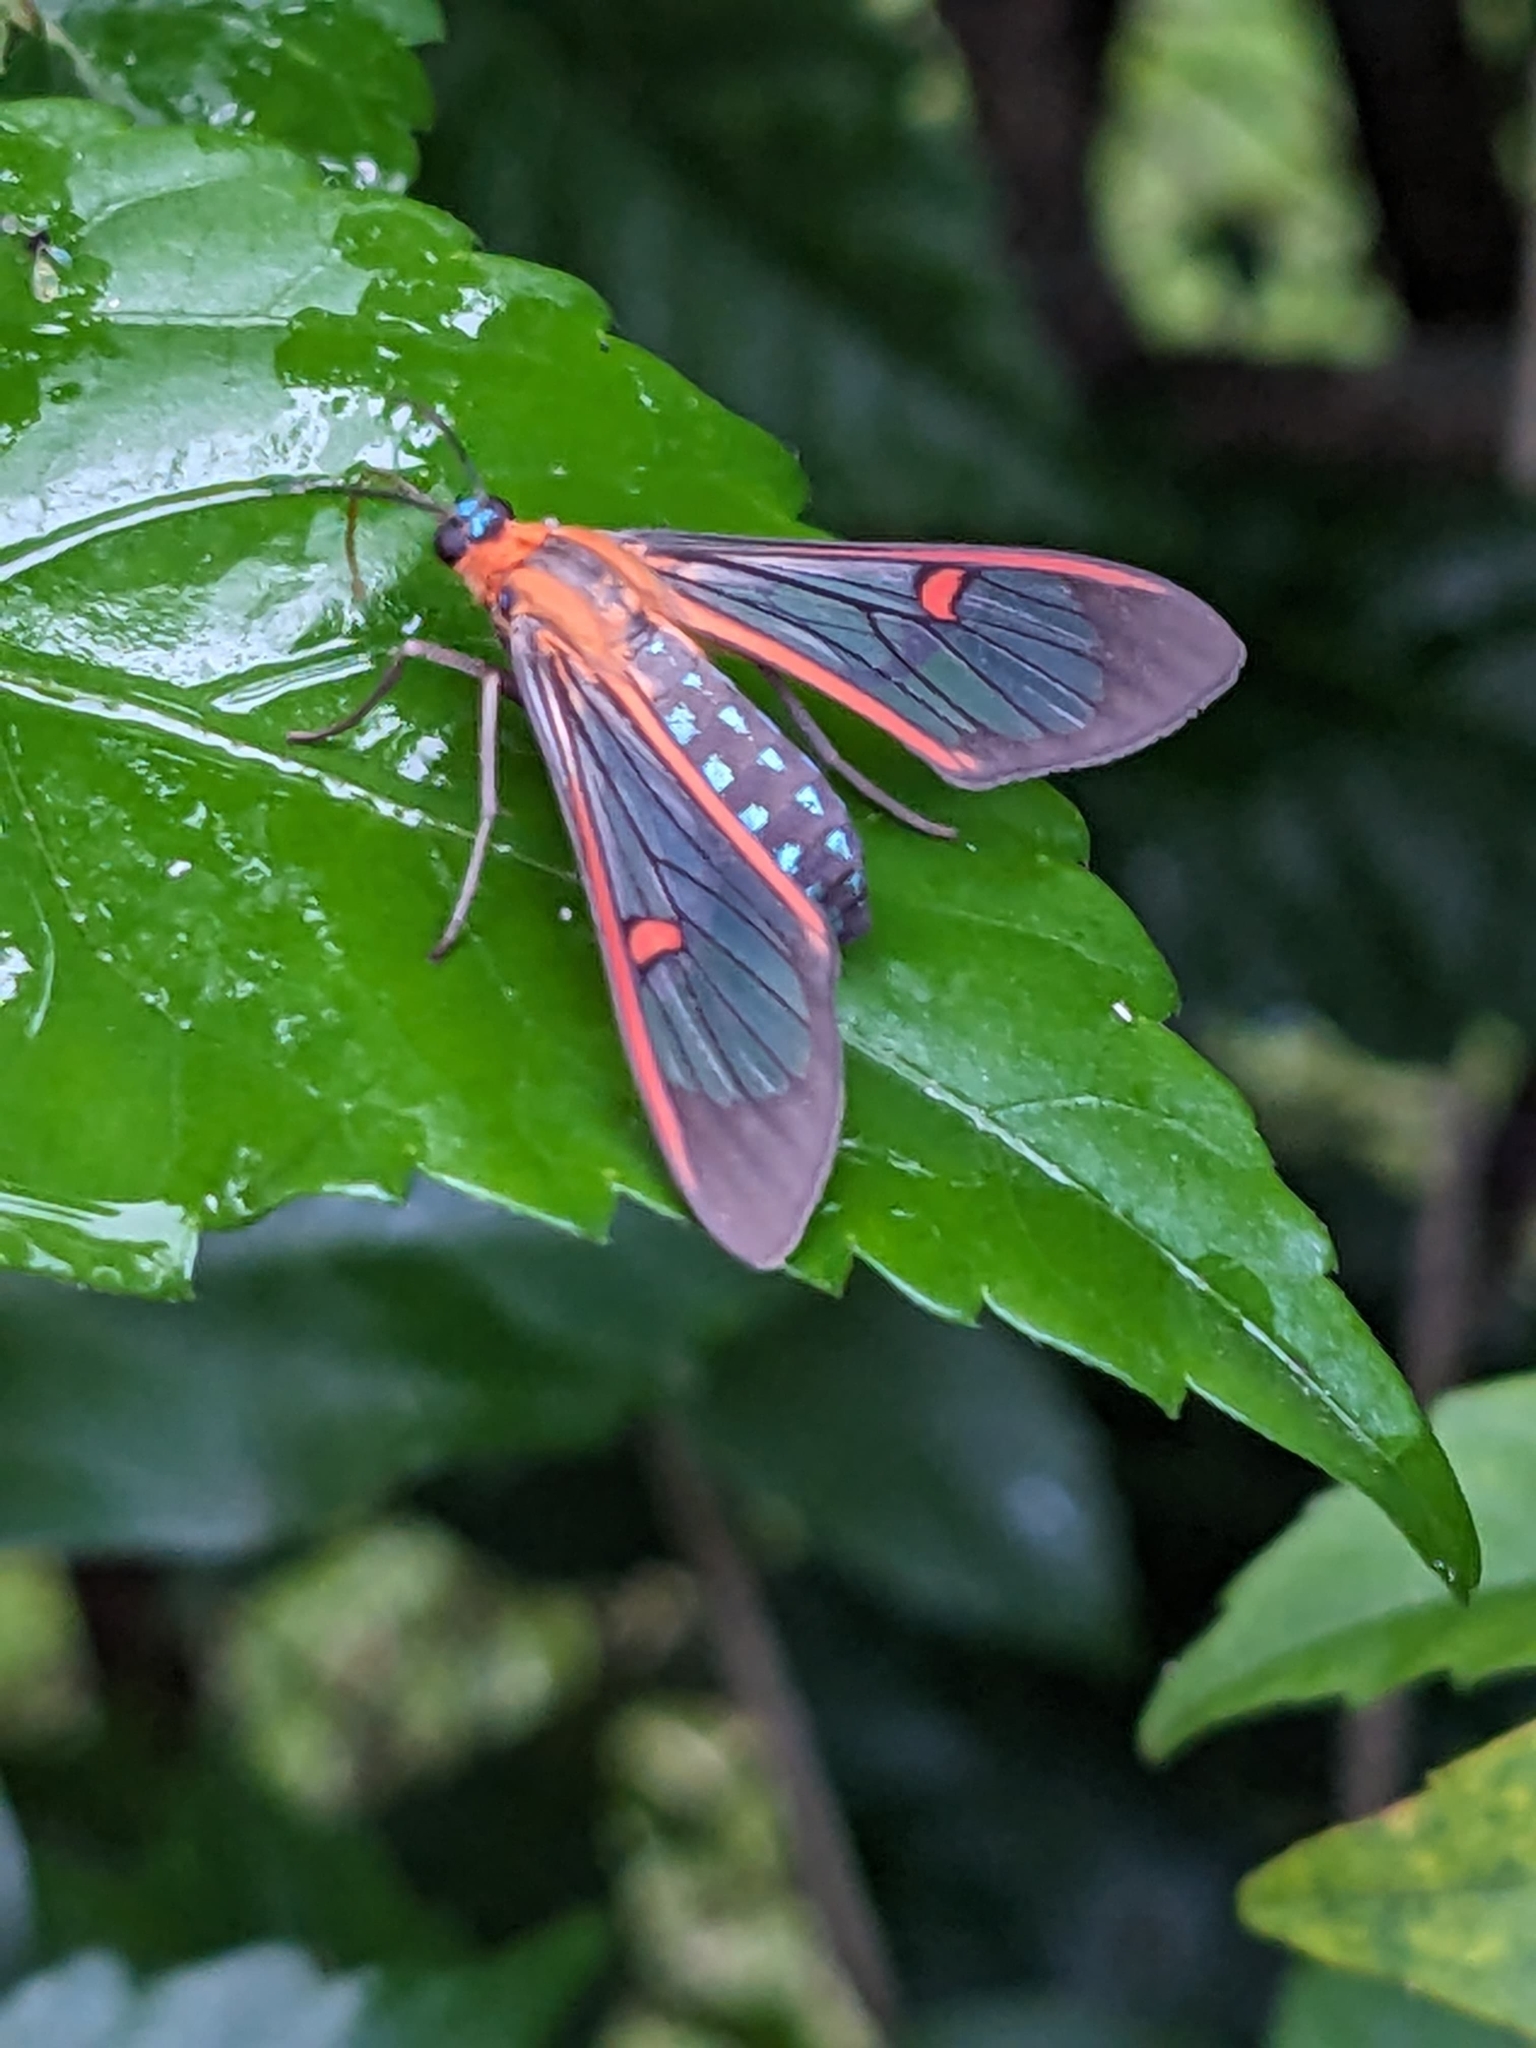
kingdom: Animalia
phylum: Arthropoda
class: Insecta
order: Lepidoptera
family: Erebidae
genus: Lepidoneiva
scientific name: Lepidoneiva erubescens
